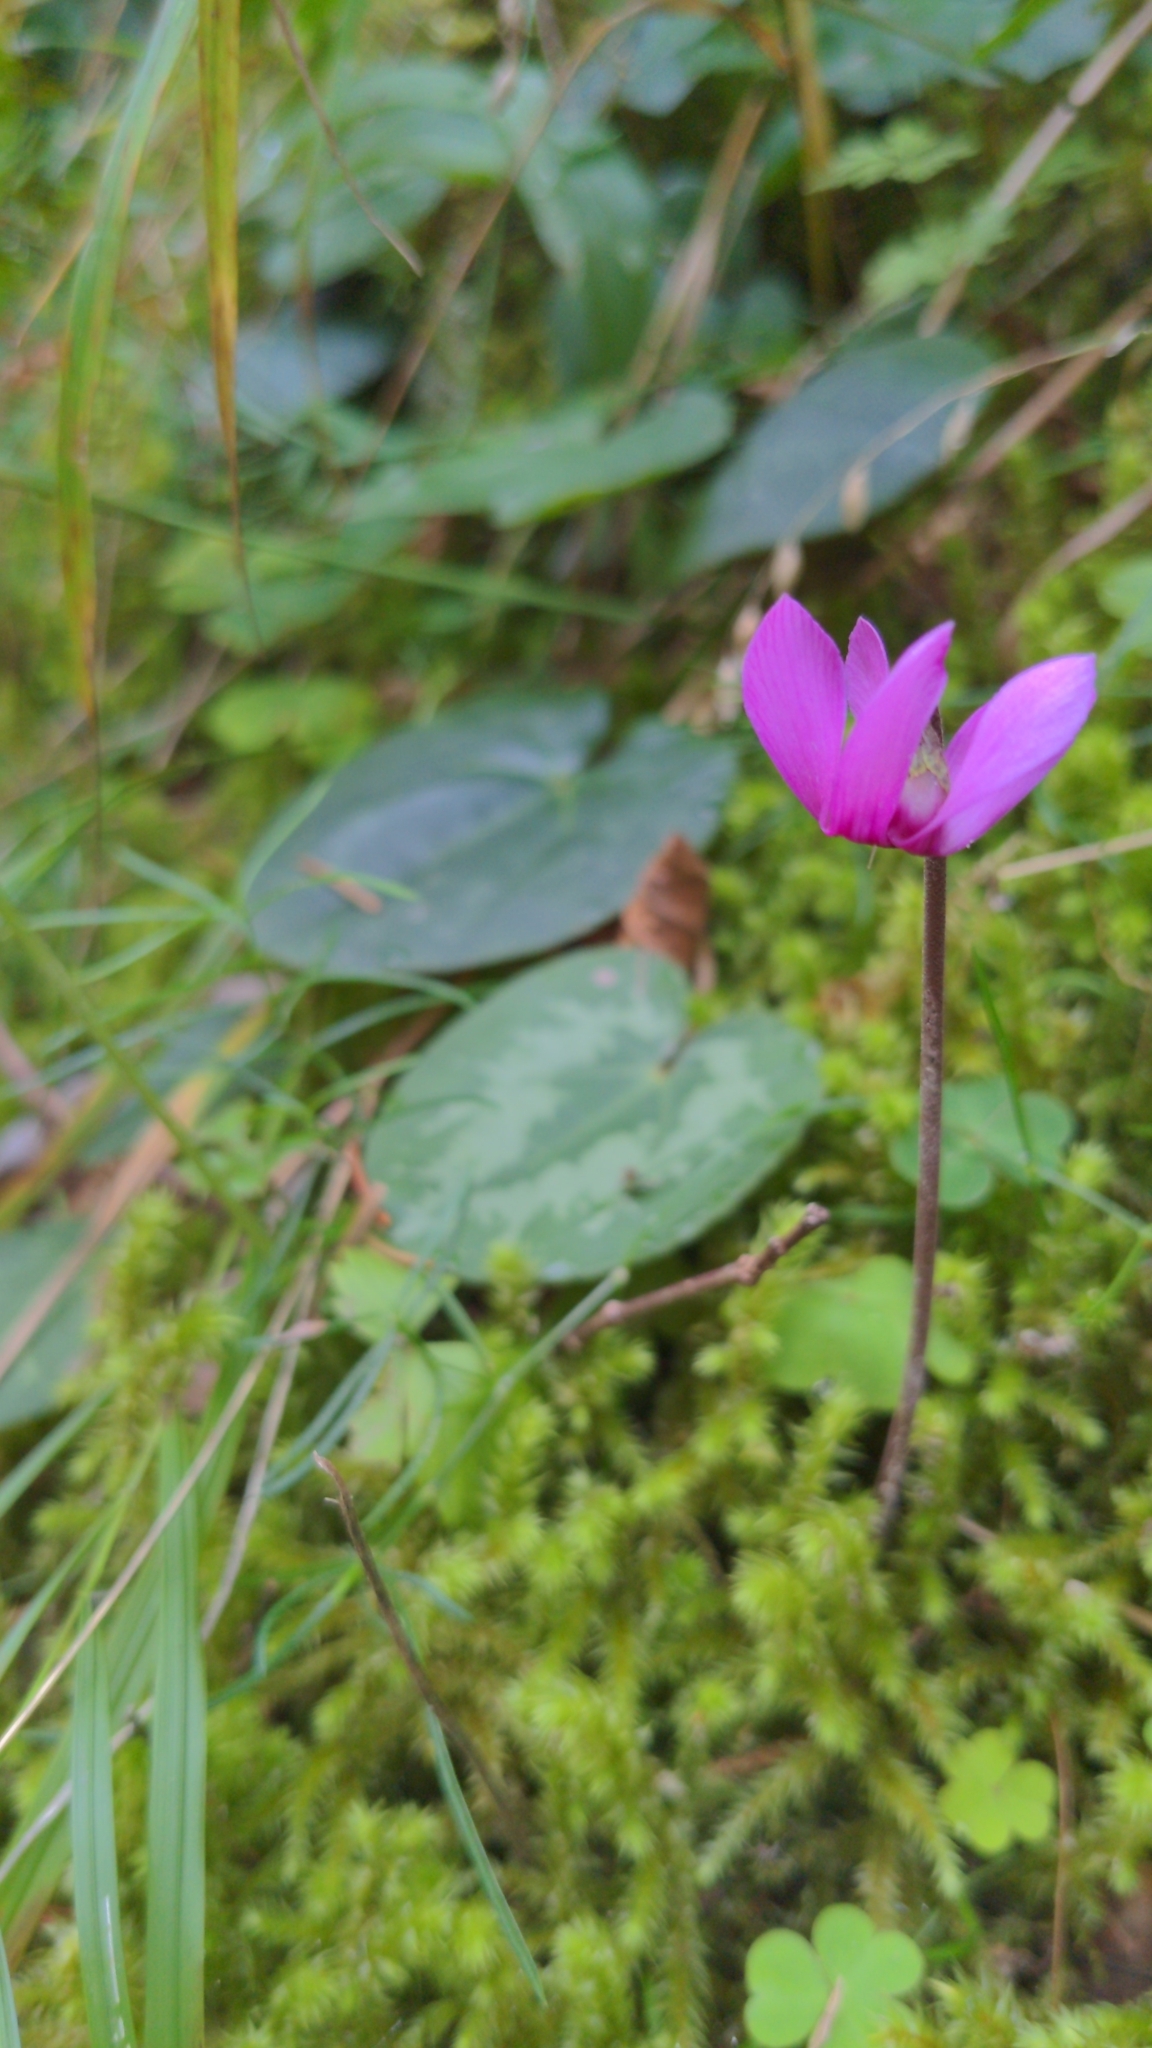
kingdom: Plantae
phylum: Tracheophyta
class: Magnoliopsida
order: Ericales
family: Primulaceae
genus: Cyclamen
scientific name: Cyclamen purpurascens
